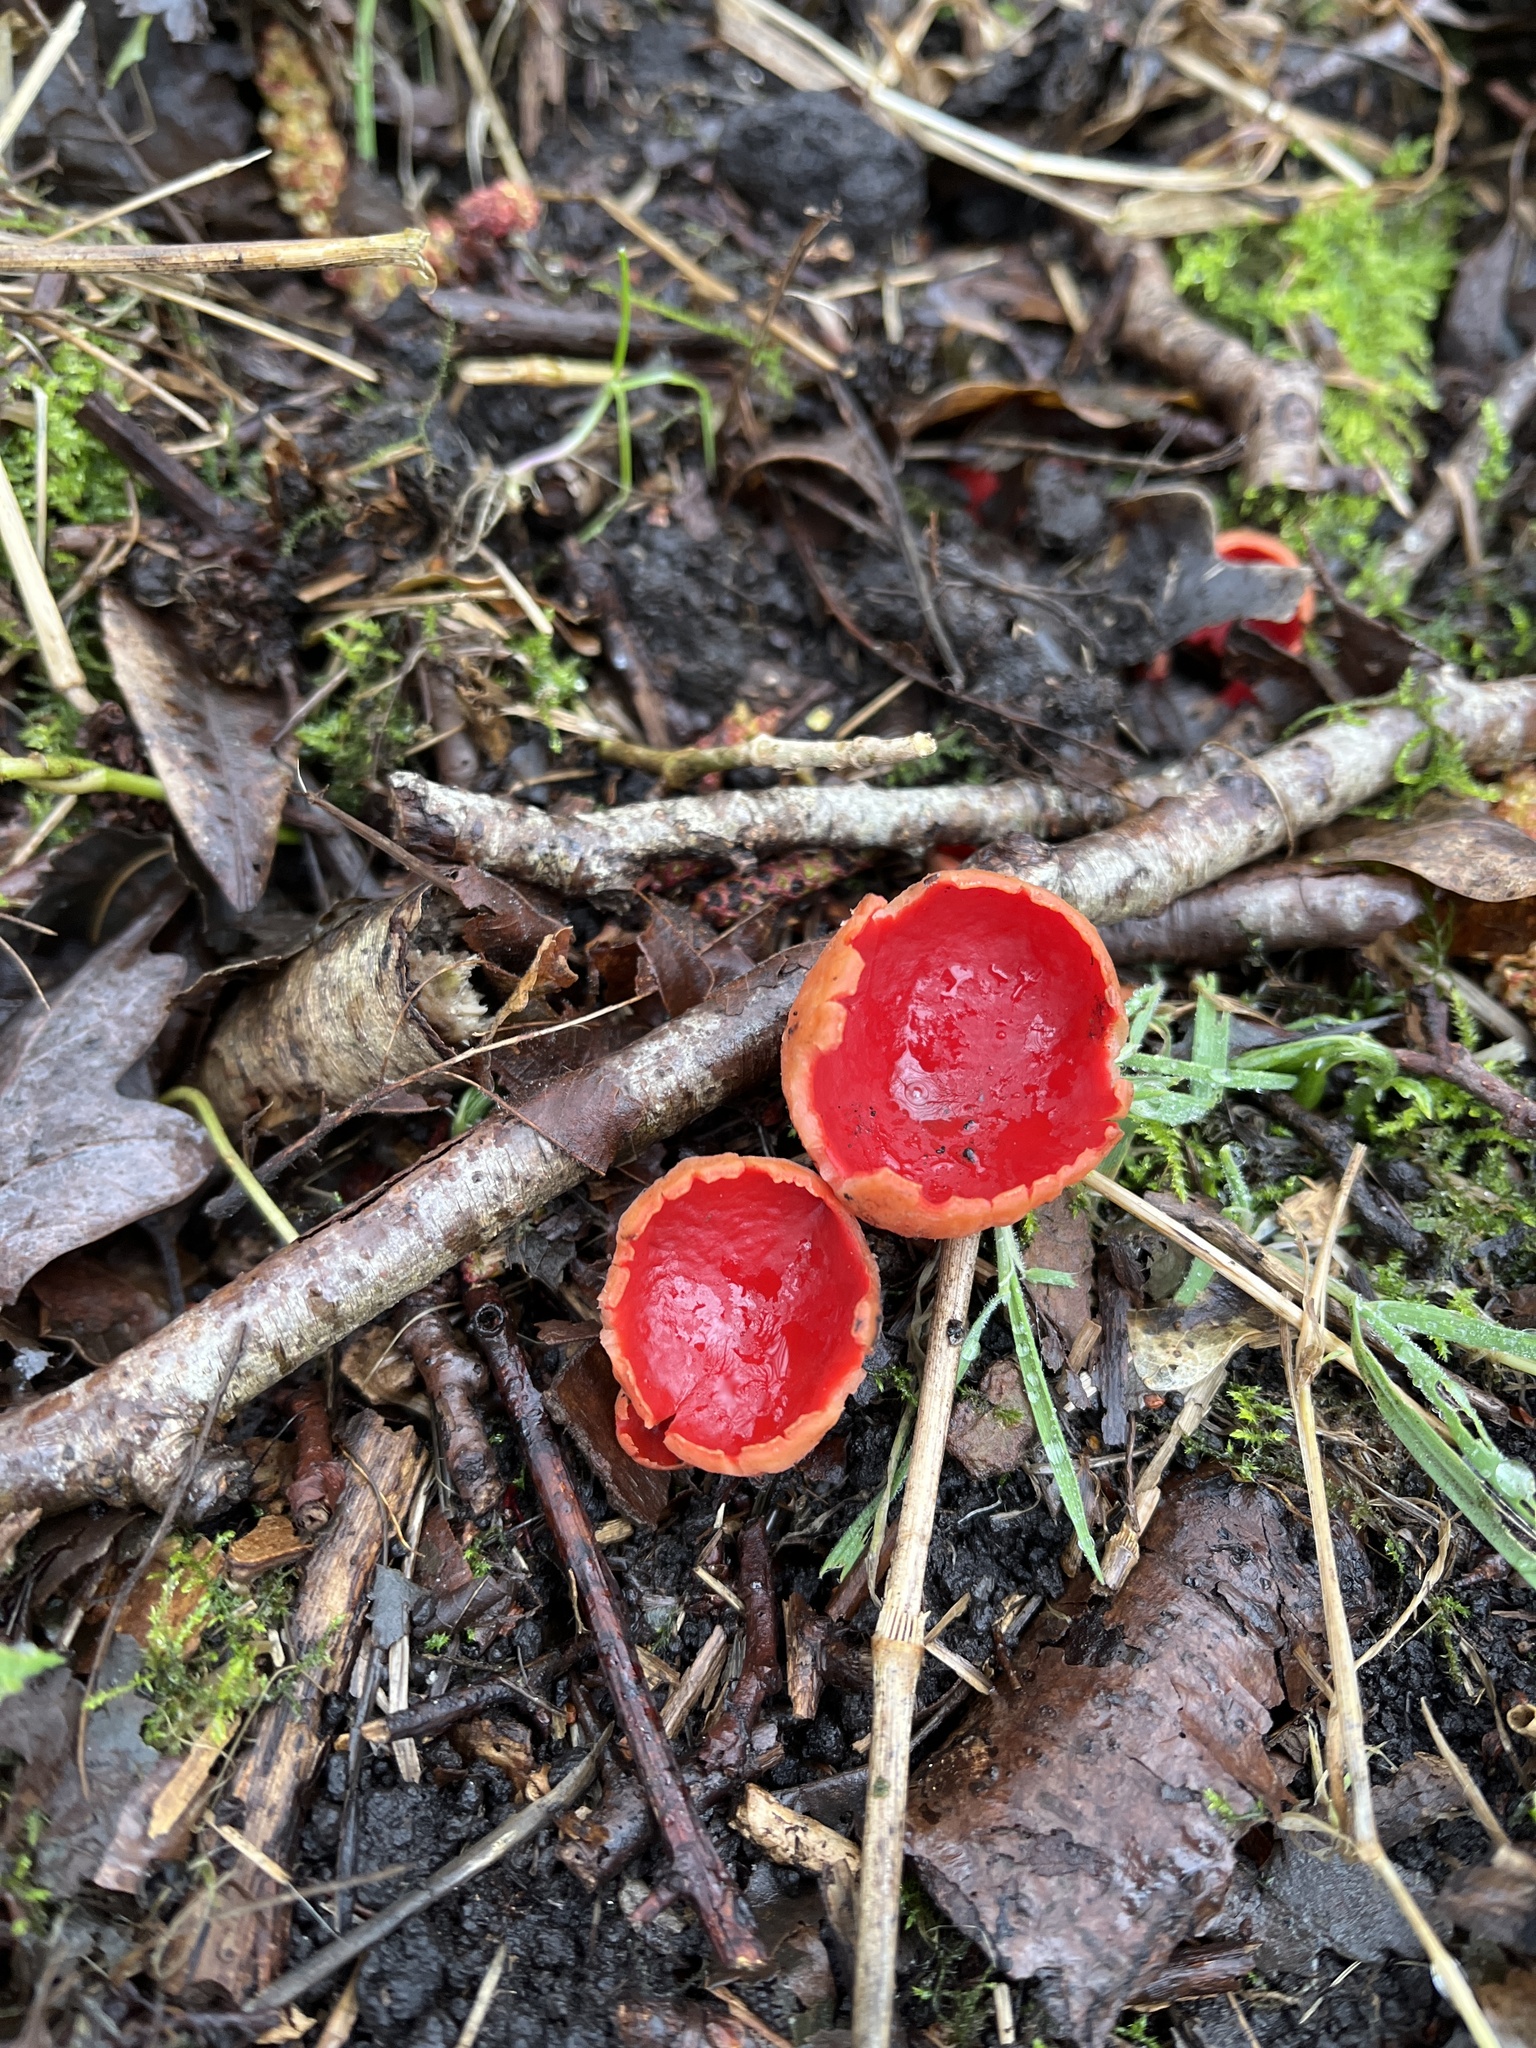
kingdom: Fungi
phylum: Ascomycota
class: Pezizomycetes
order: Pezizales
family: Sarcoscyphaceae
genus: Sarcoscypha
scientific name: Sarcoscypha
